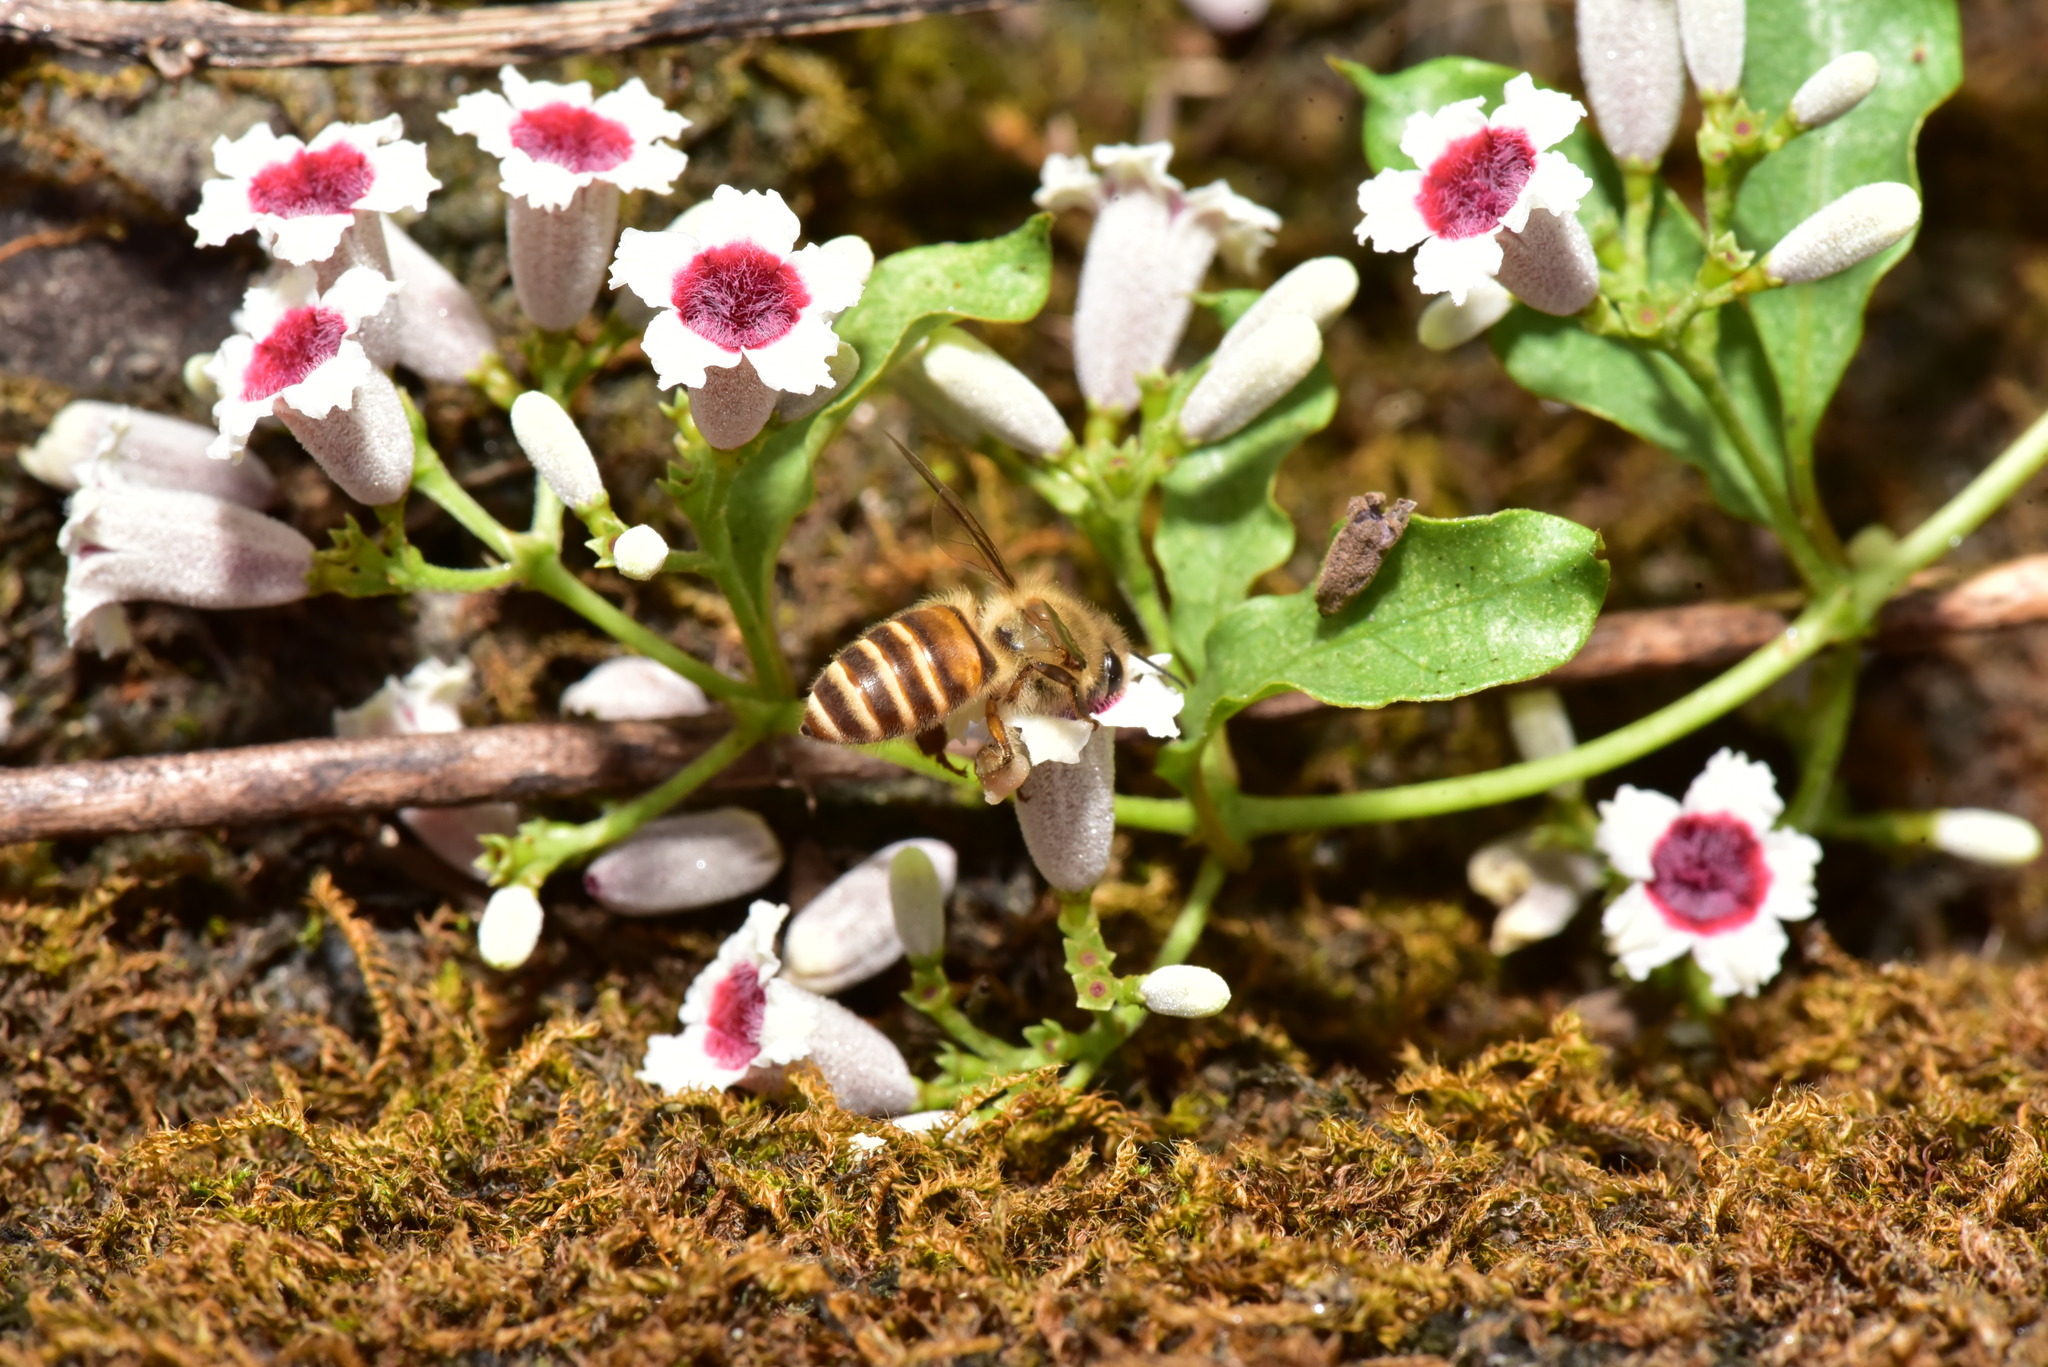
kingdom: Animalia
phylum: Arthropoda
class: Insecta
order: Hymenoptera
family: Apidae
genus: Apis
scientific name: Apis cerana
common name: Honey bee
